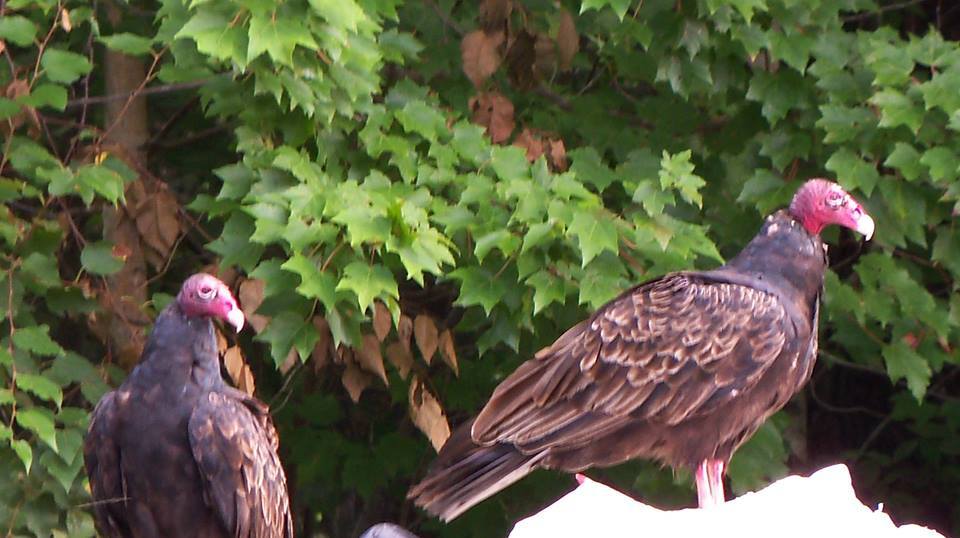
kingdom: Animalia
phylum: Chordata
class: Aves
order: Accipitriformes
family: Cathartidae
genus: Cathartes
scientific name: Cathartes aura
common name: Turkey vulture
